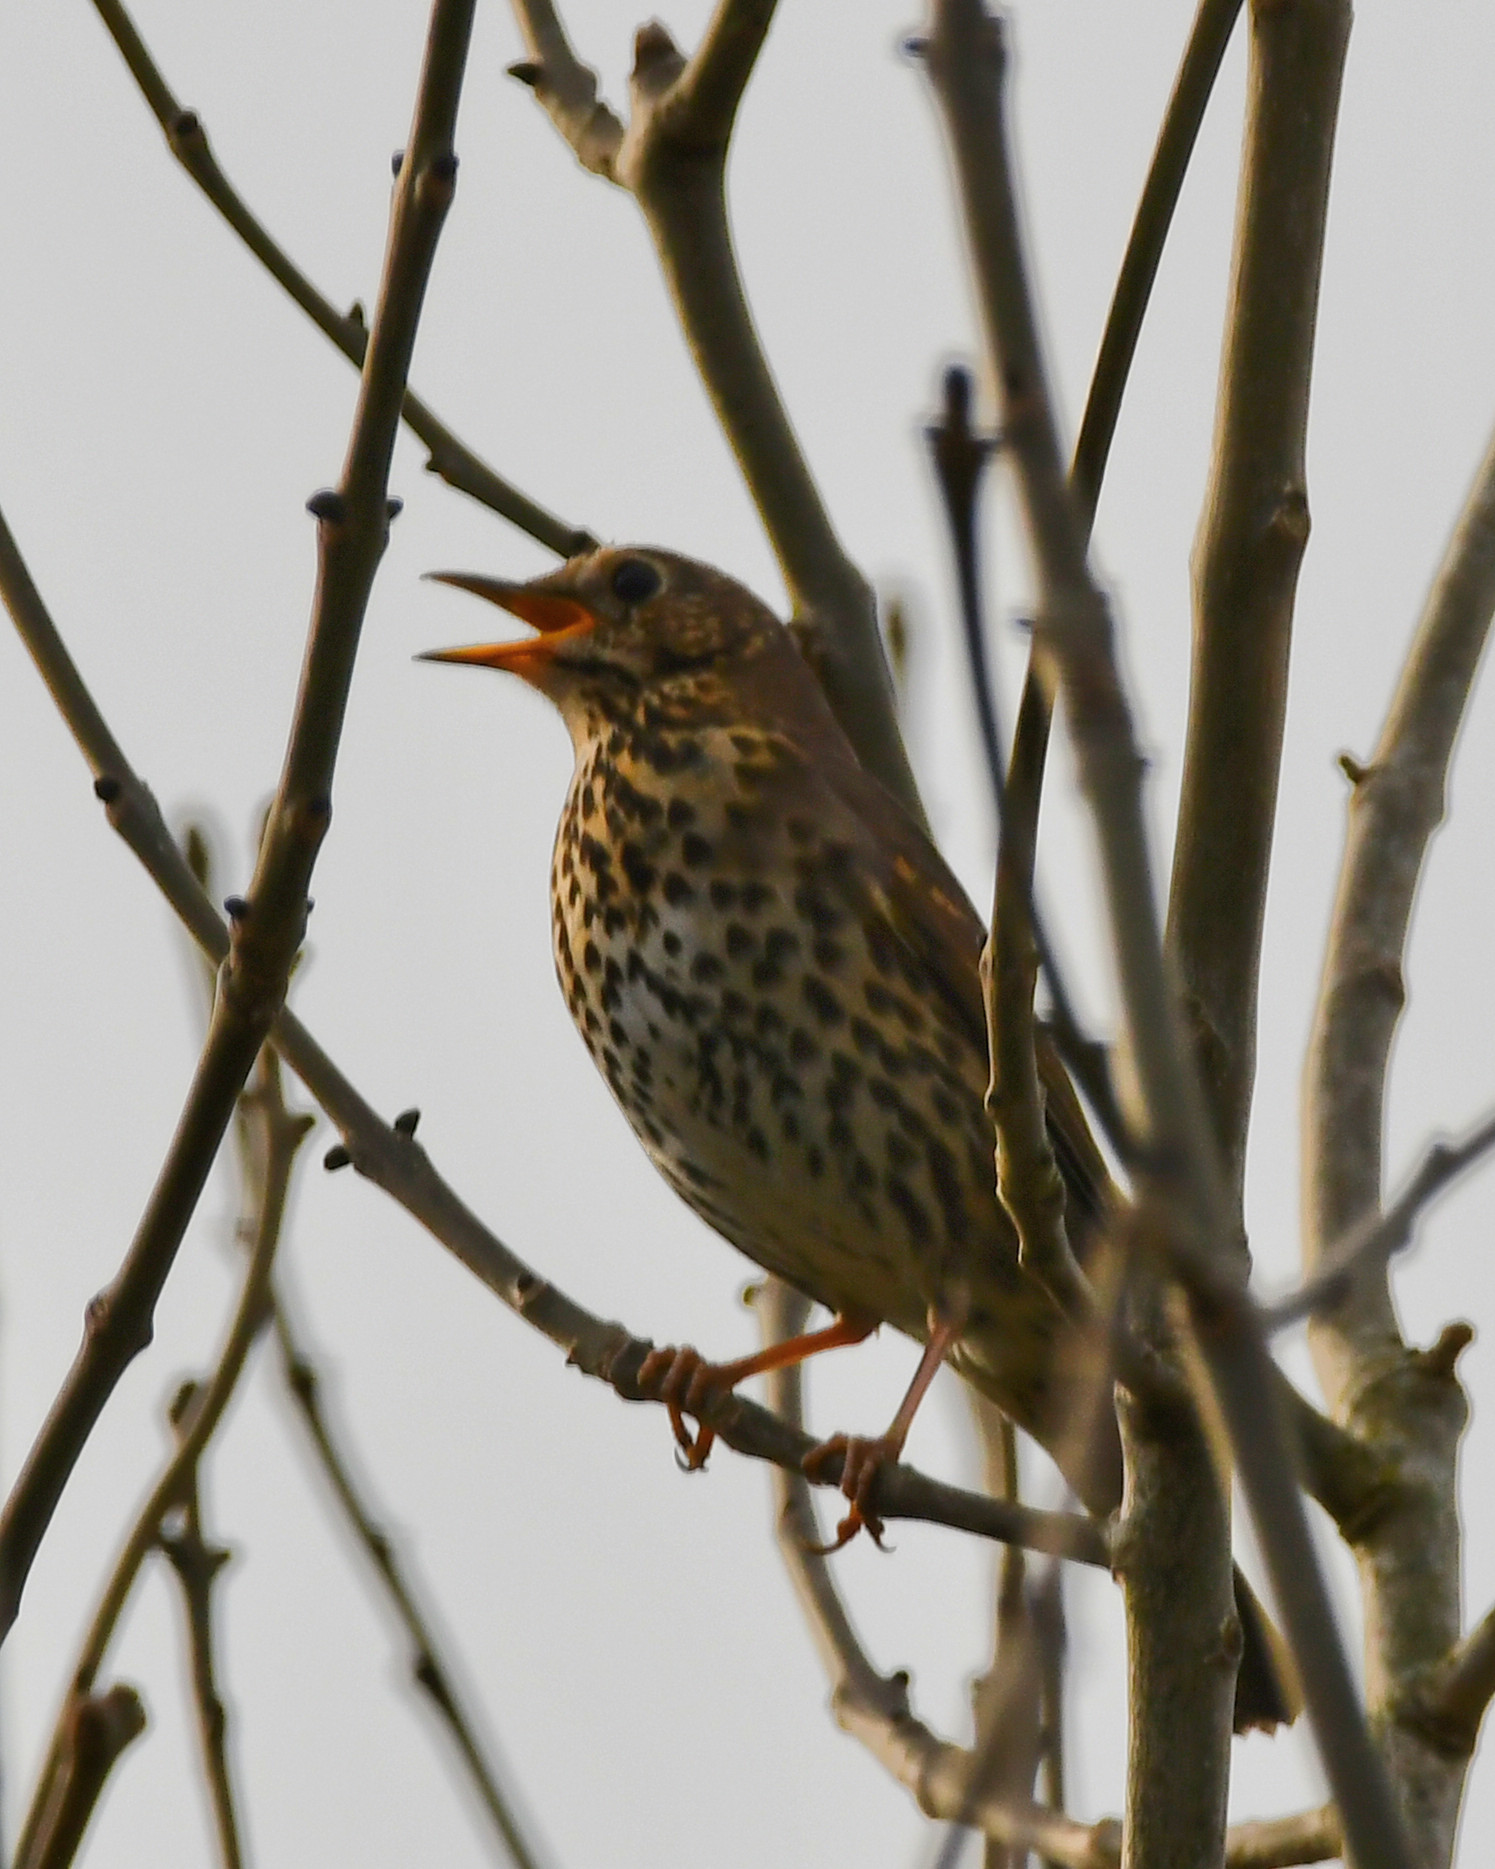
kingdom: Animalia
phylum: Chordata
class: Aves
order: Passeriformes
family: Turdidae
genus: Turdus
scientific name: Turdus philomelos
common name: Song thrush
